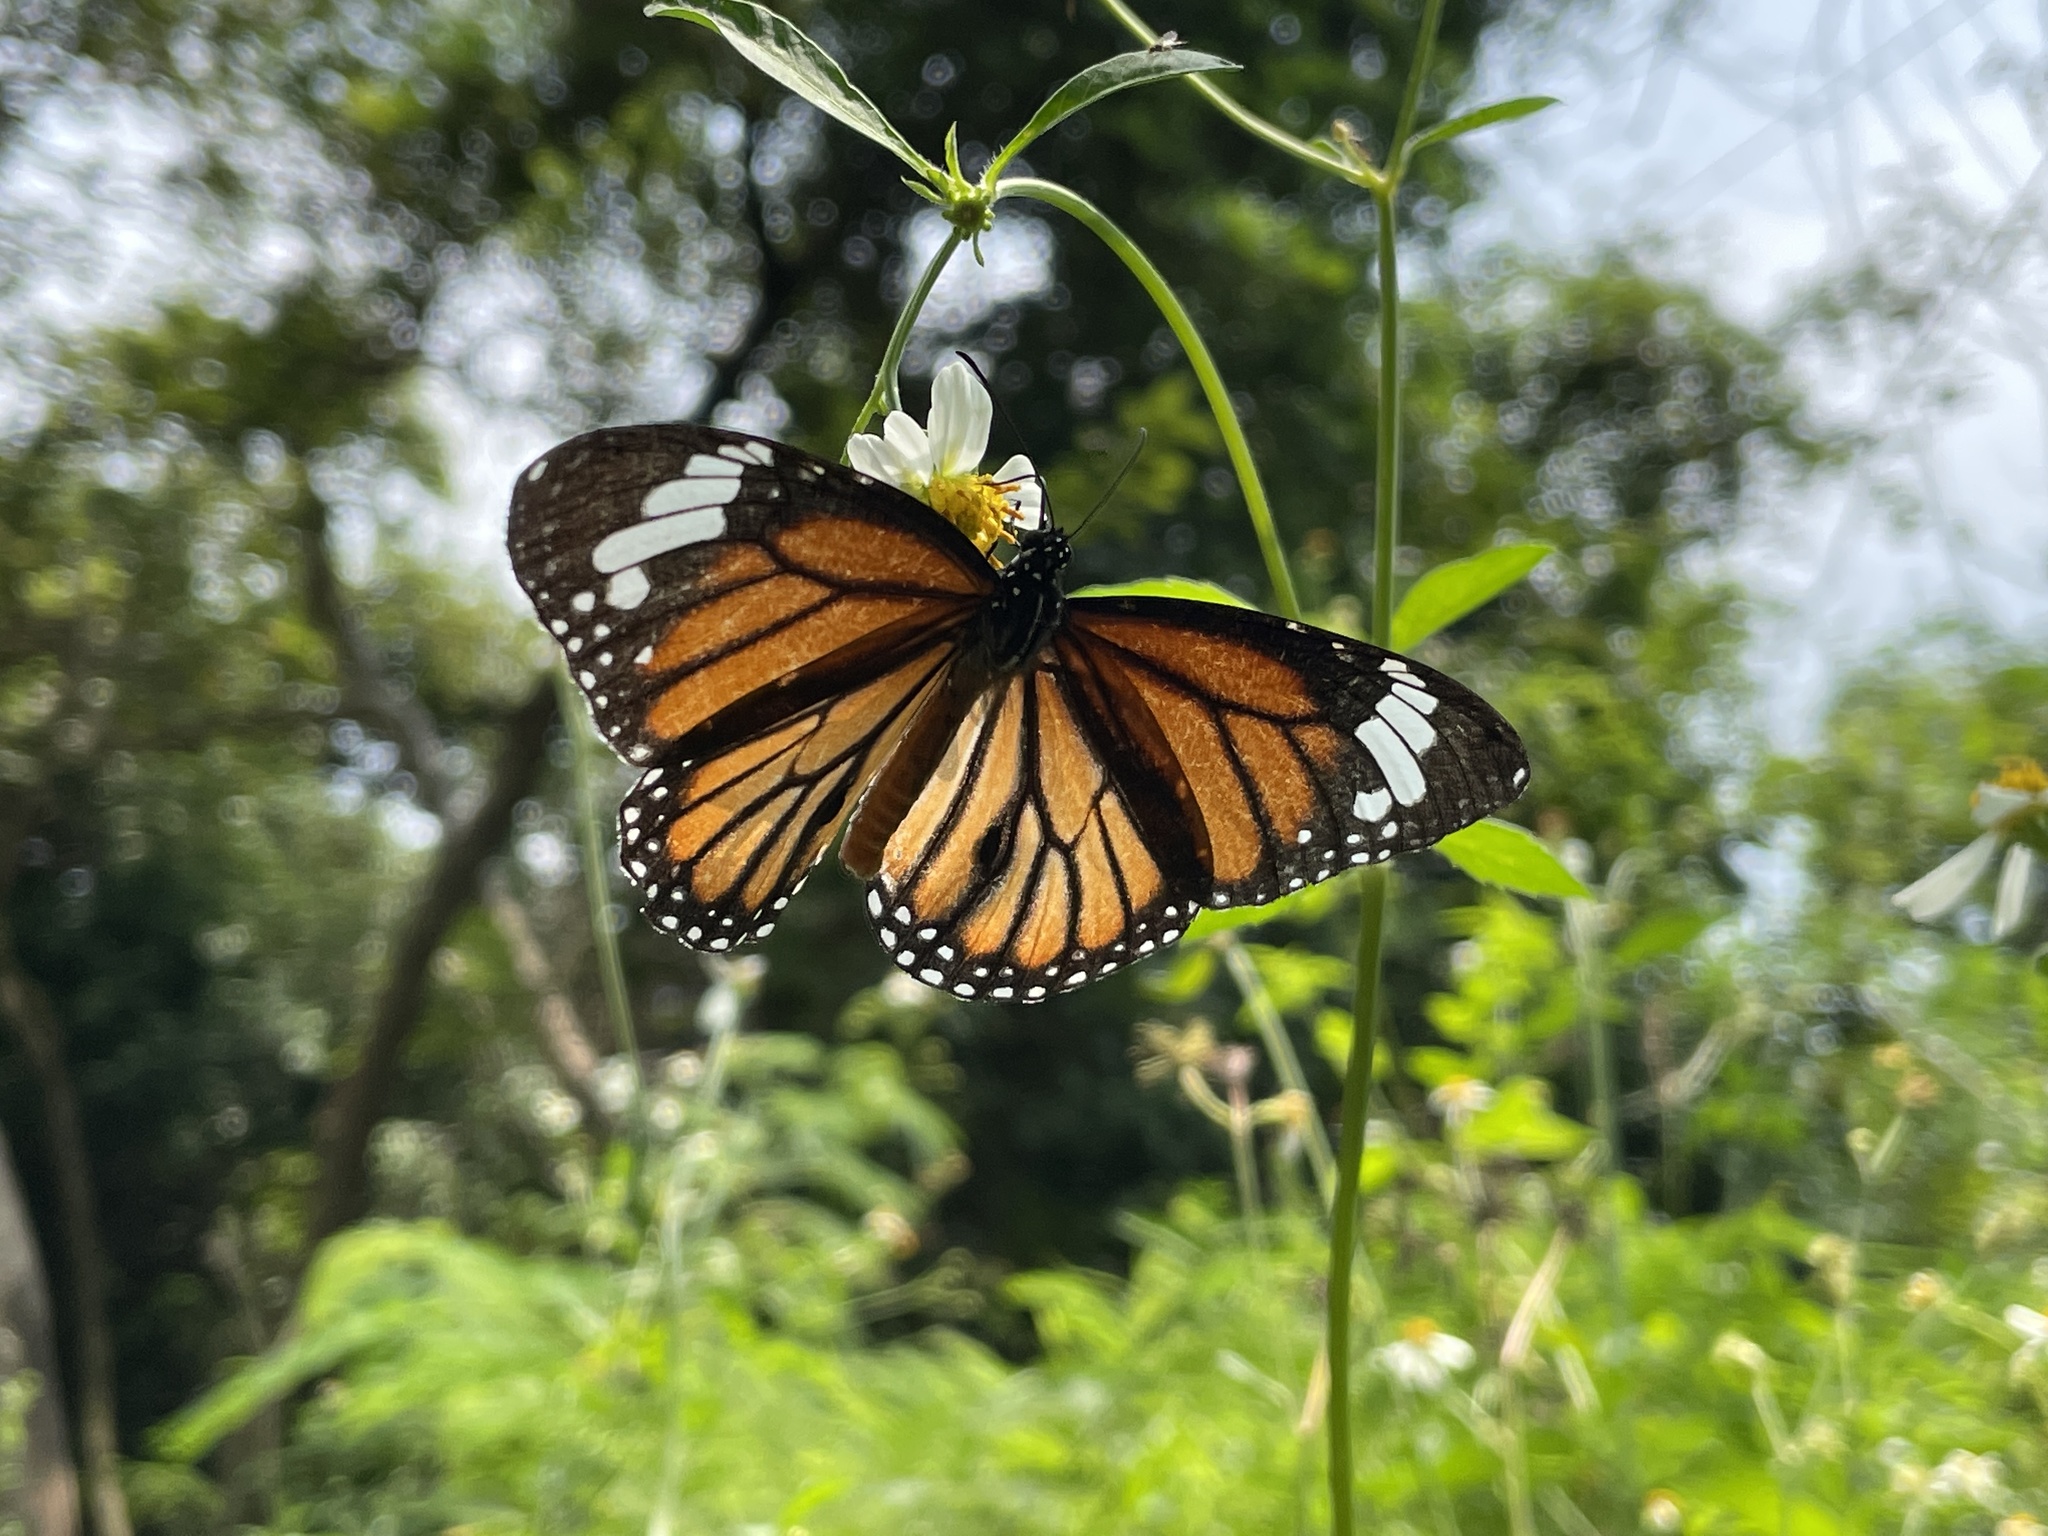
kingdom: Animalia
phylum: Arthropoda
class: Insecta
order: Lepidoptera
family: Nymphalidae
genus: Danaus
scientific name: Danaus genutia
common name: Common tiger butterfly
